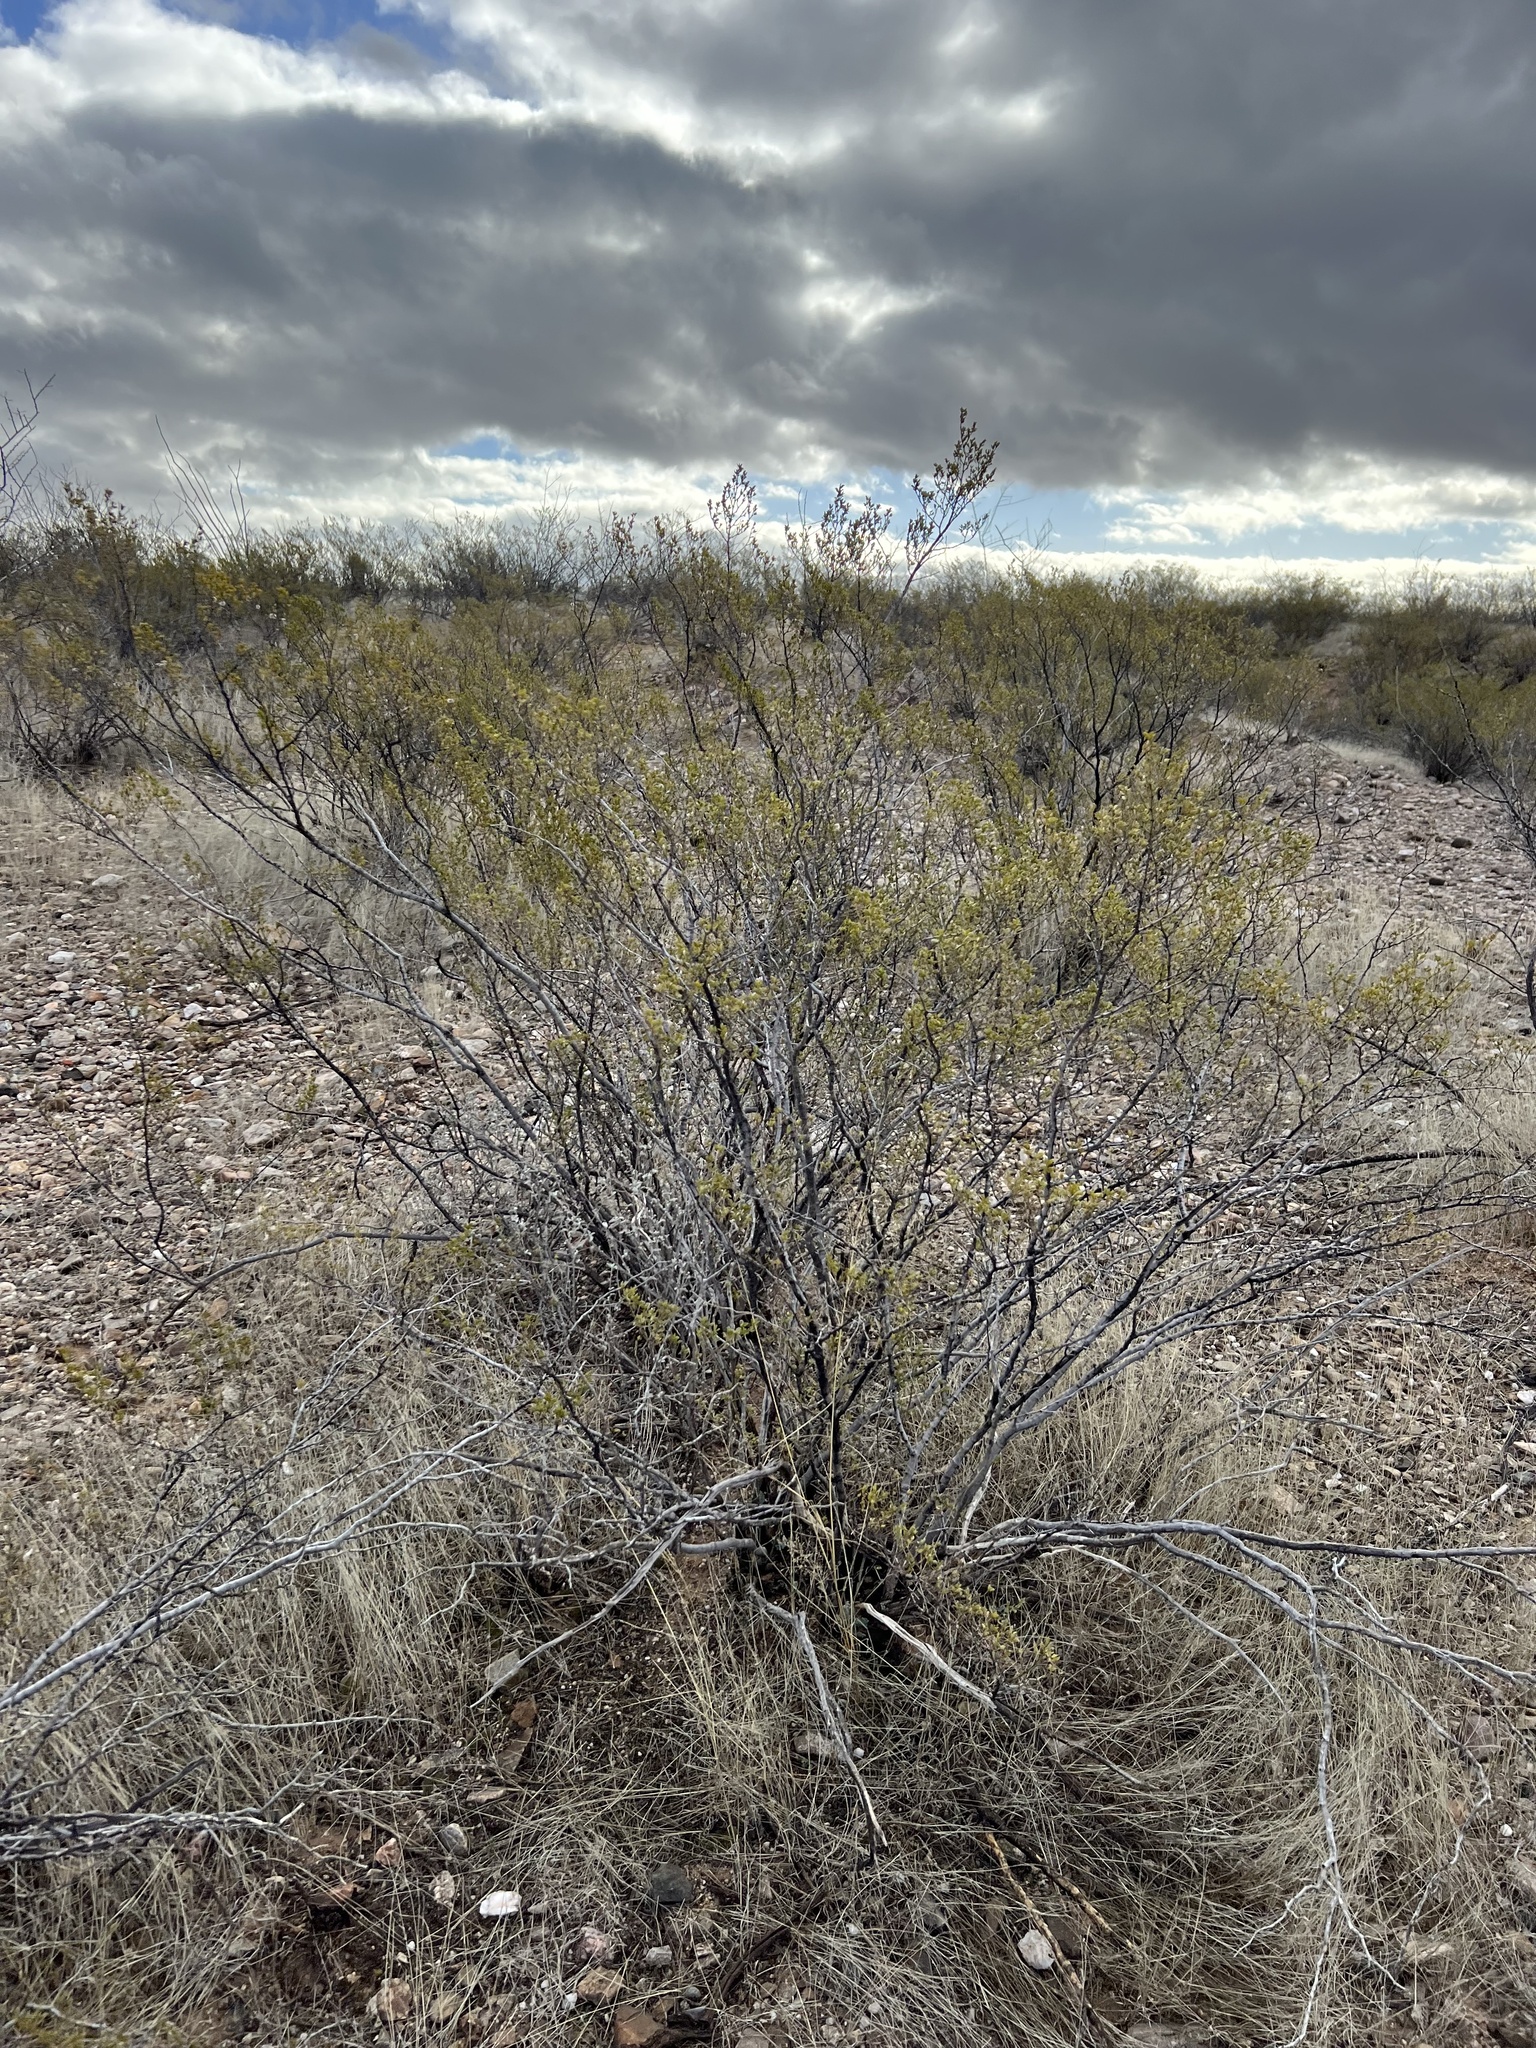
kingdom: Plantae
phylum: Tracheophyta
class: Magnoliopsida
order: Zygophyllales
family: Zygophyllaceae
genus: Larrea
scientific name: Larrea tridentata
